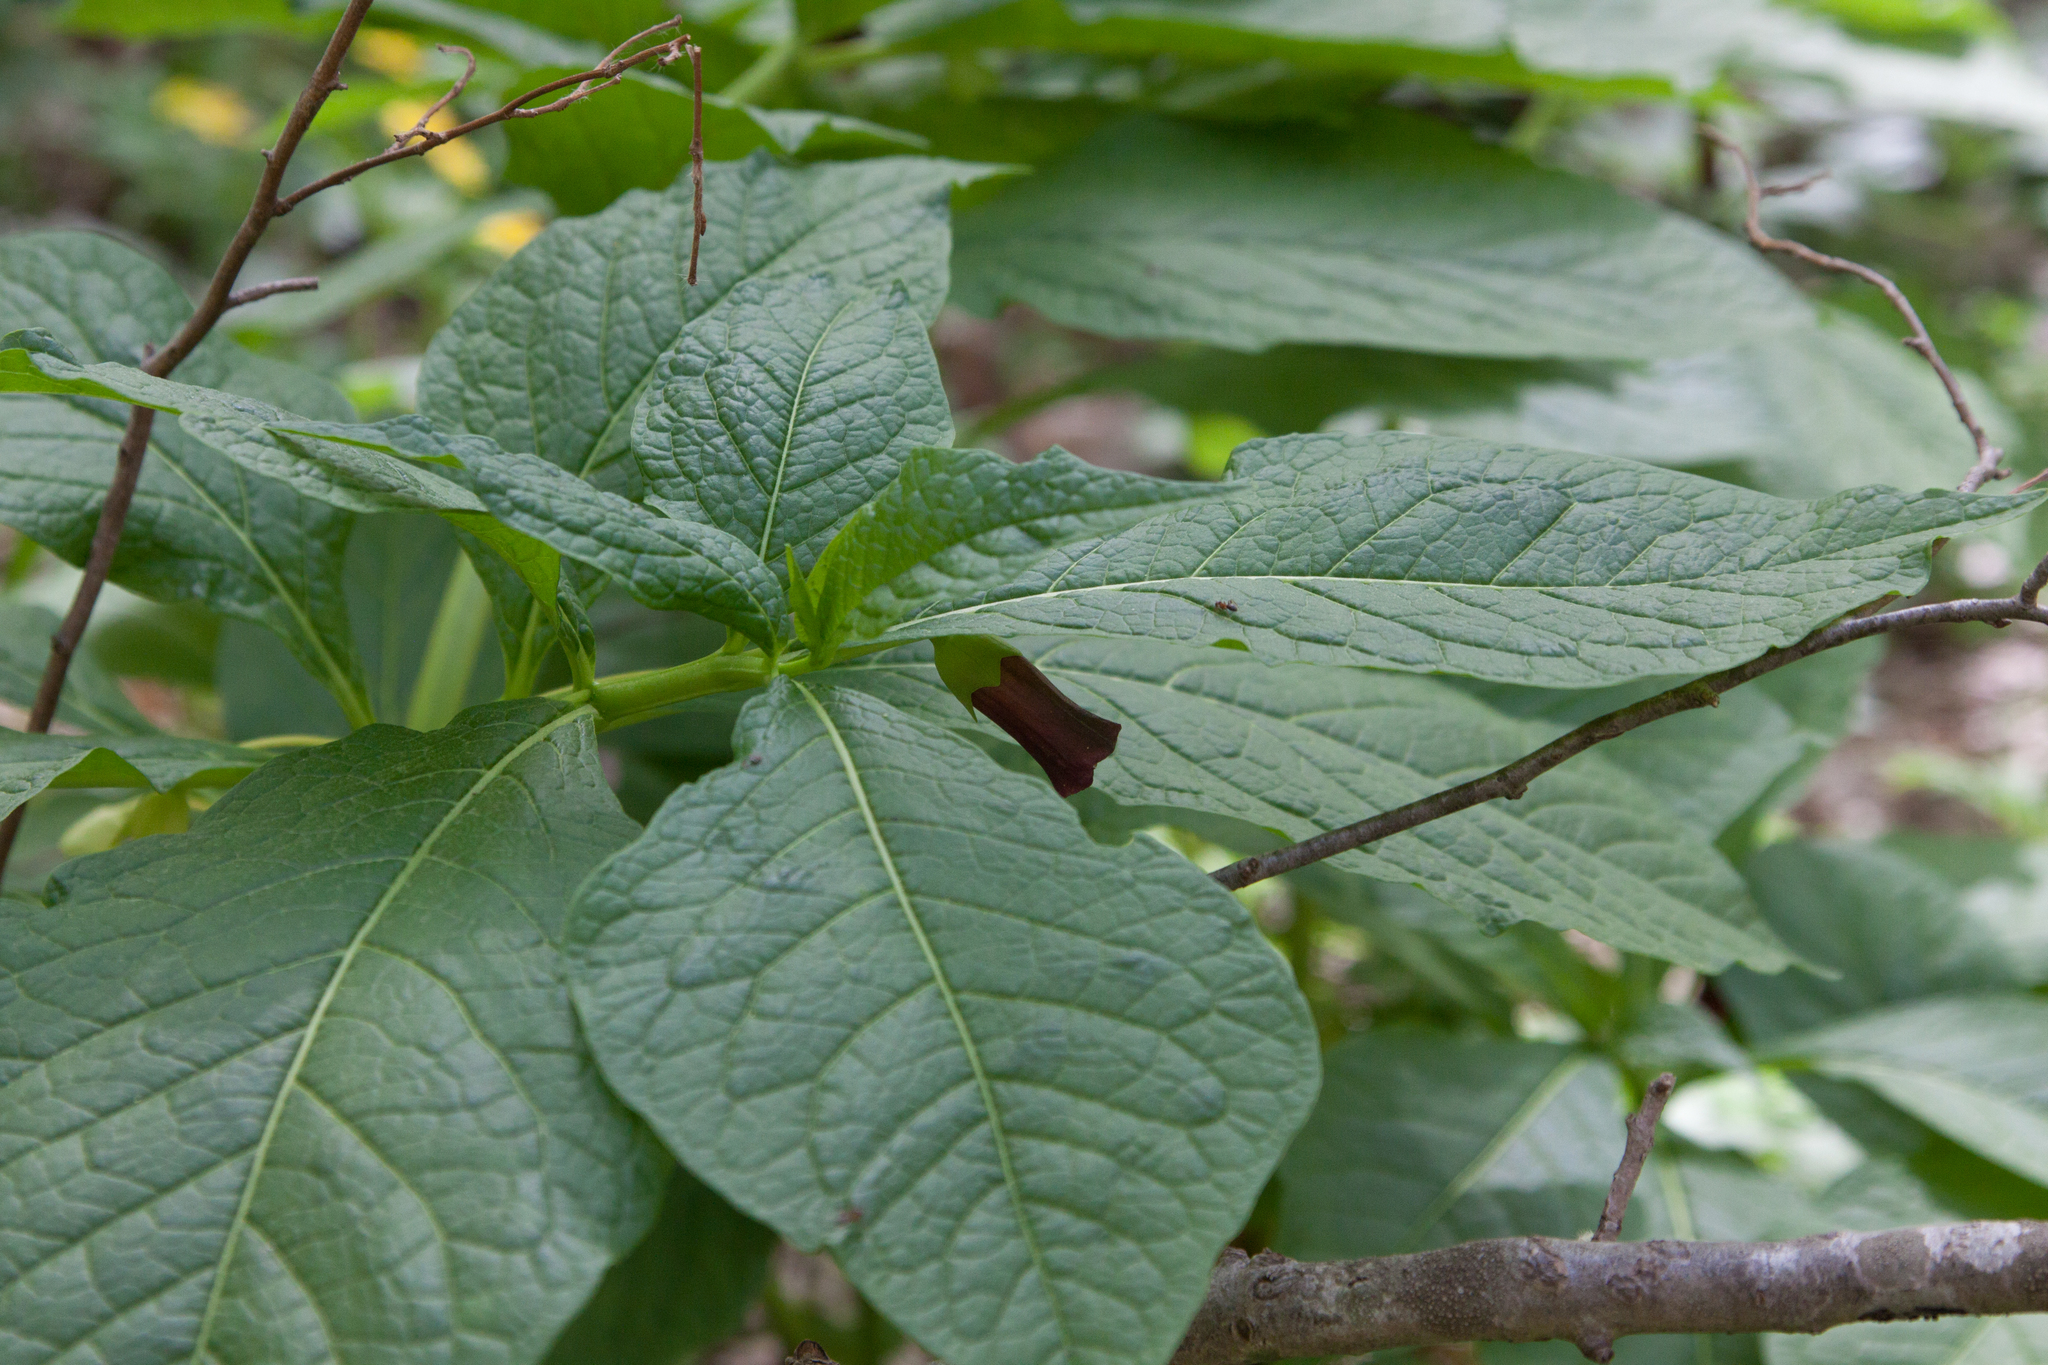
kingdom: Plantae
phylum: Tracheophyta
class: Magnoliopsida
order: Solanales
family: Solanaceae
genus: Scopolia
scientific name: Scopolia carniolica
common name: Scopolia
